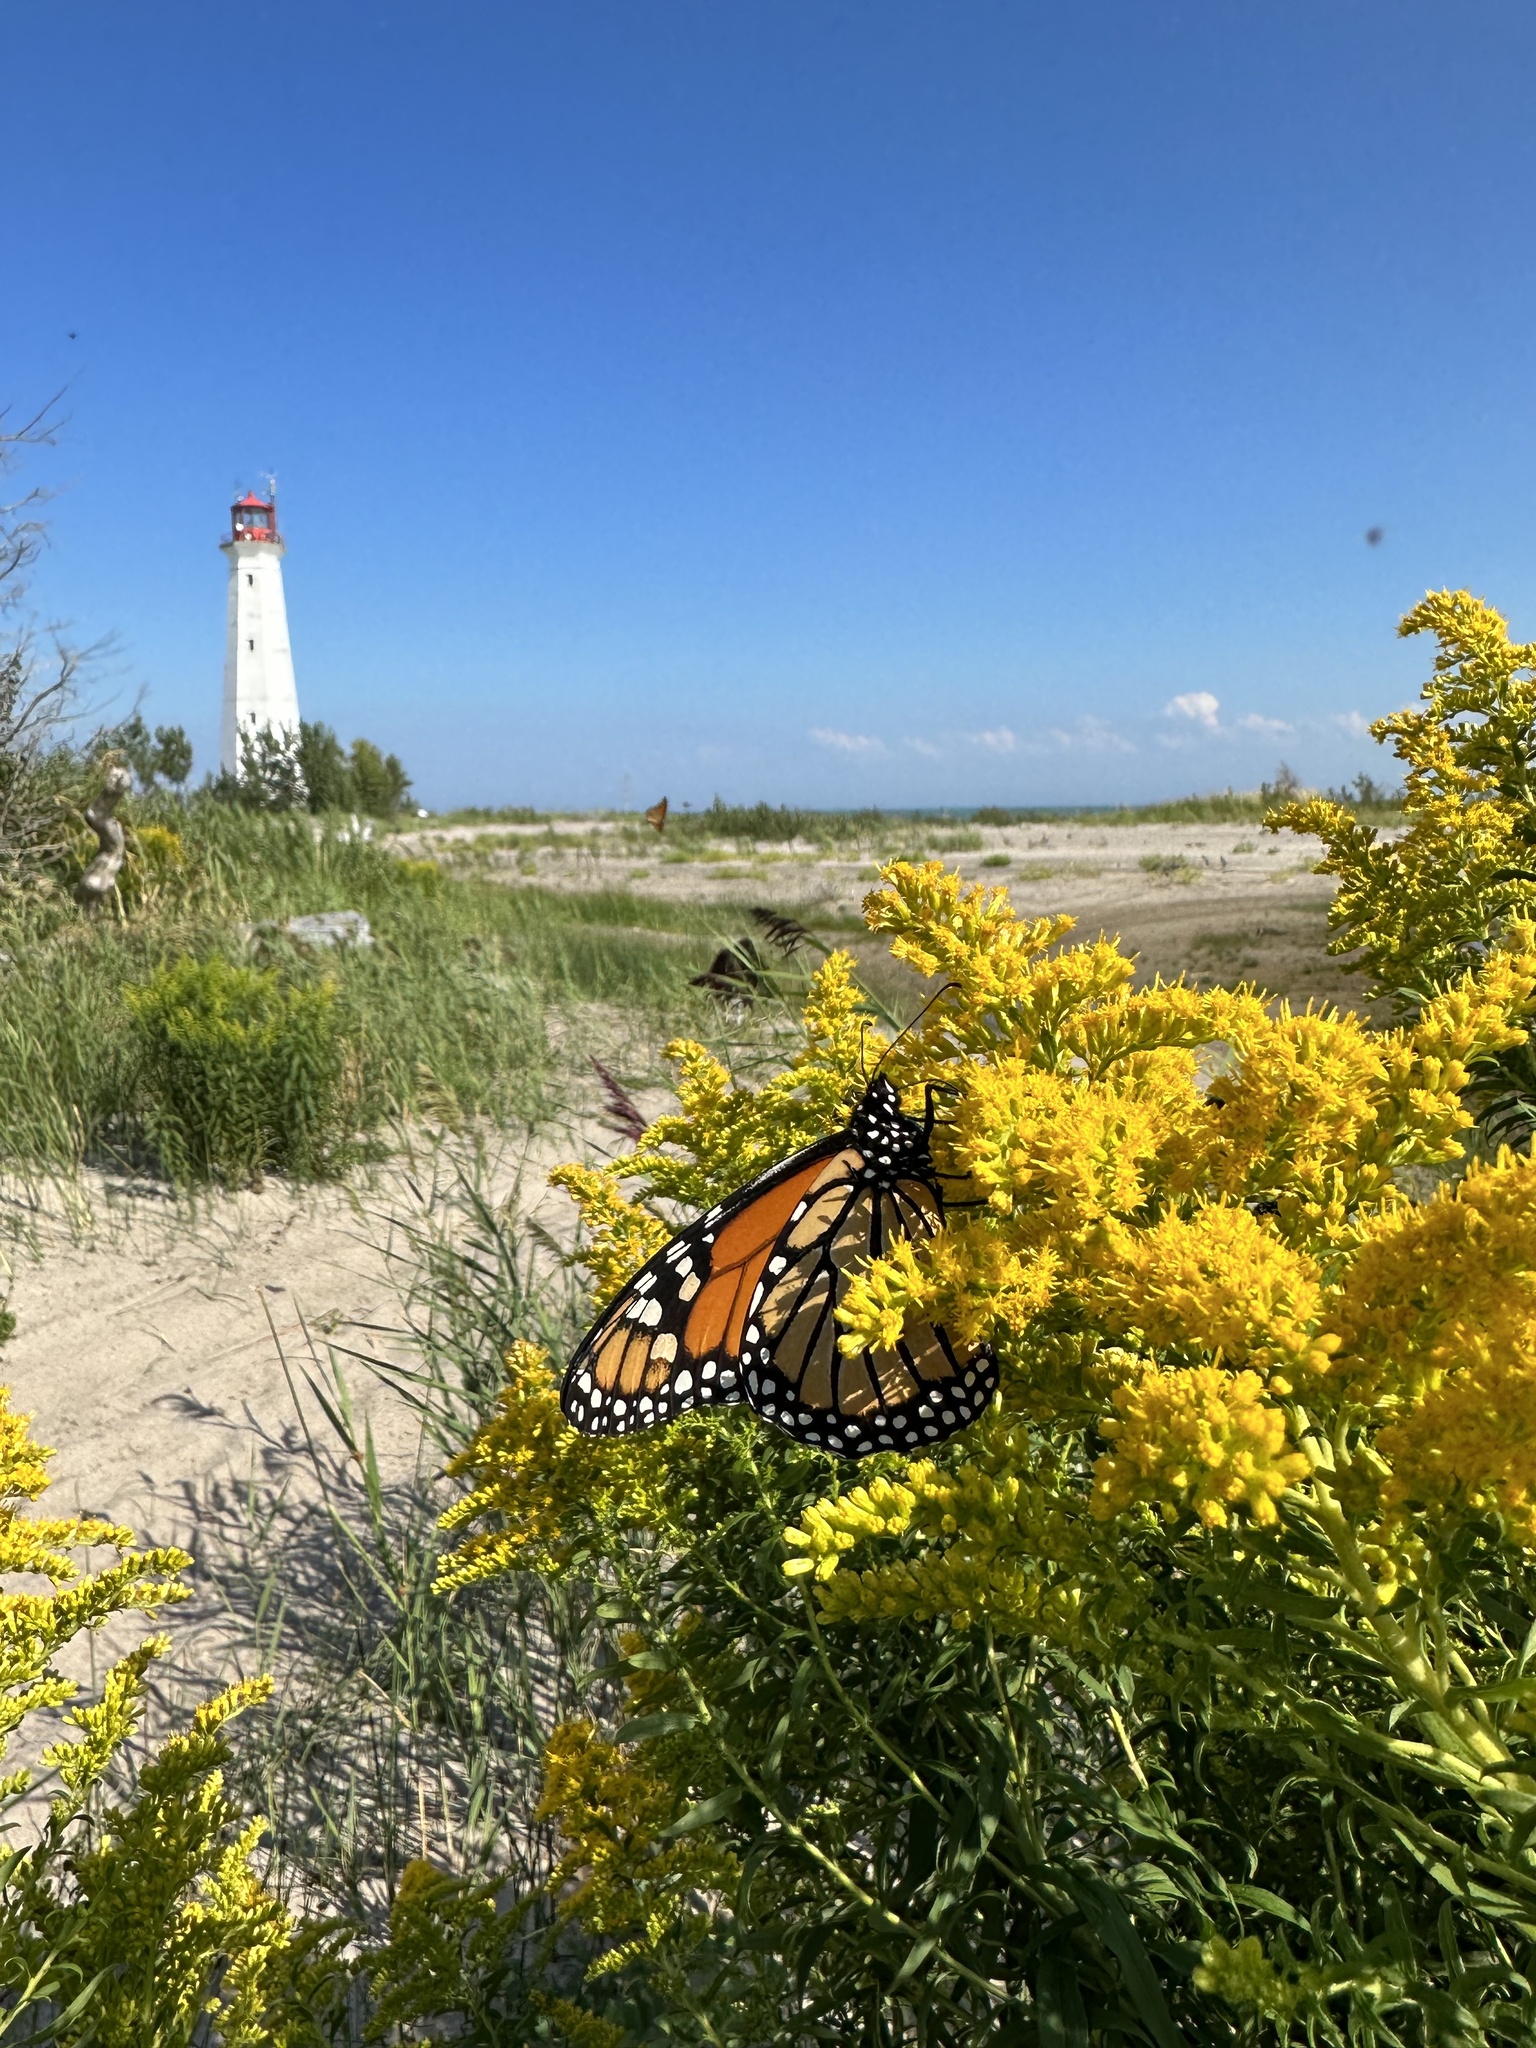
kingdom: Animalia
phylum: Arthropoda
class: Insecta
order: Lepidoptera
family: Nymphalidae
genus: Danaus
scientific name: Danaus plexippus
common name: Monarch
